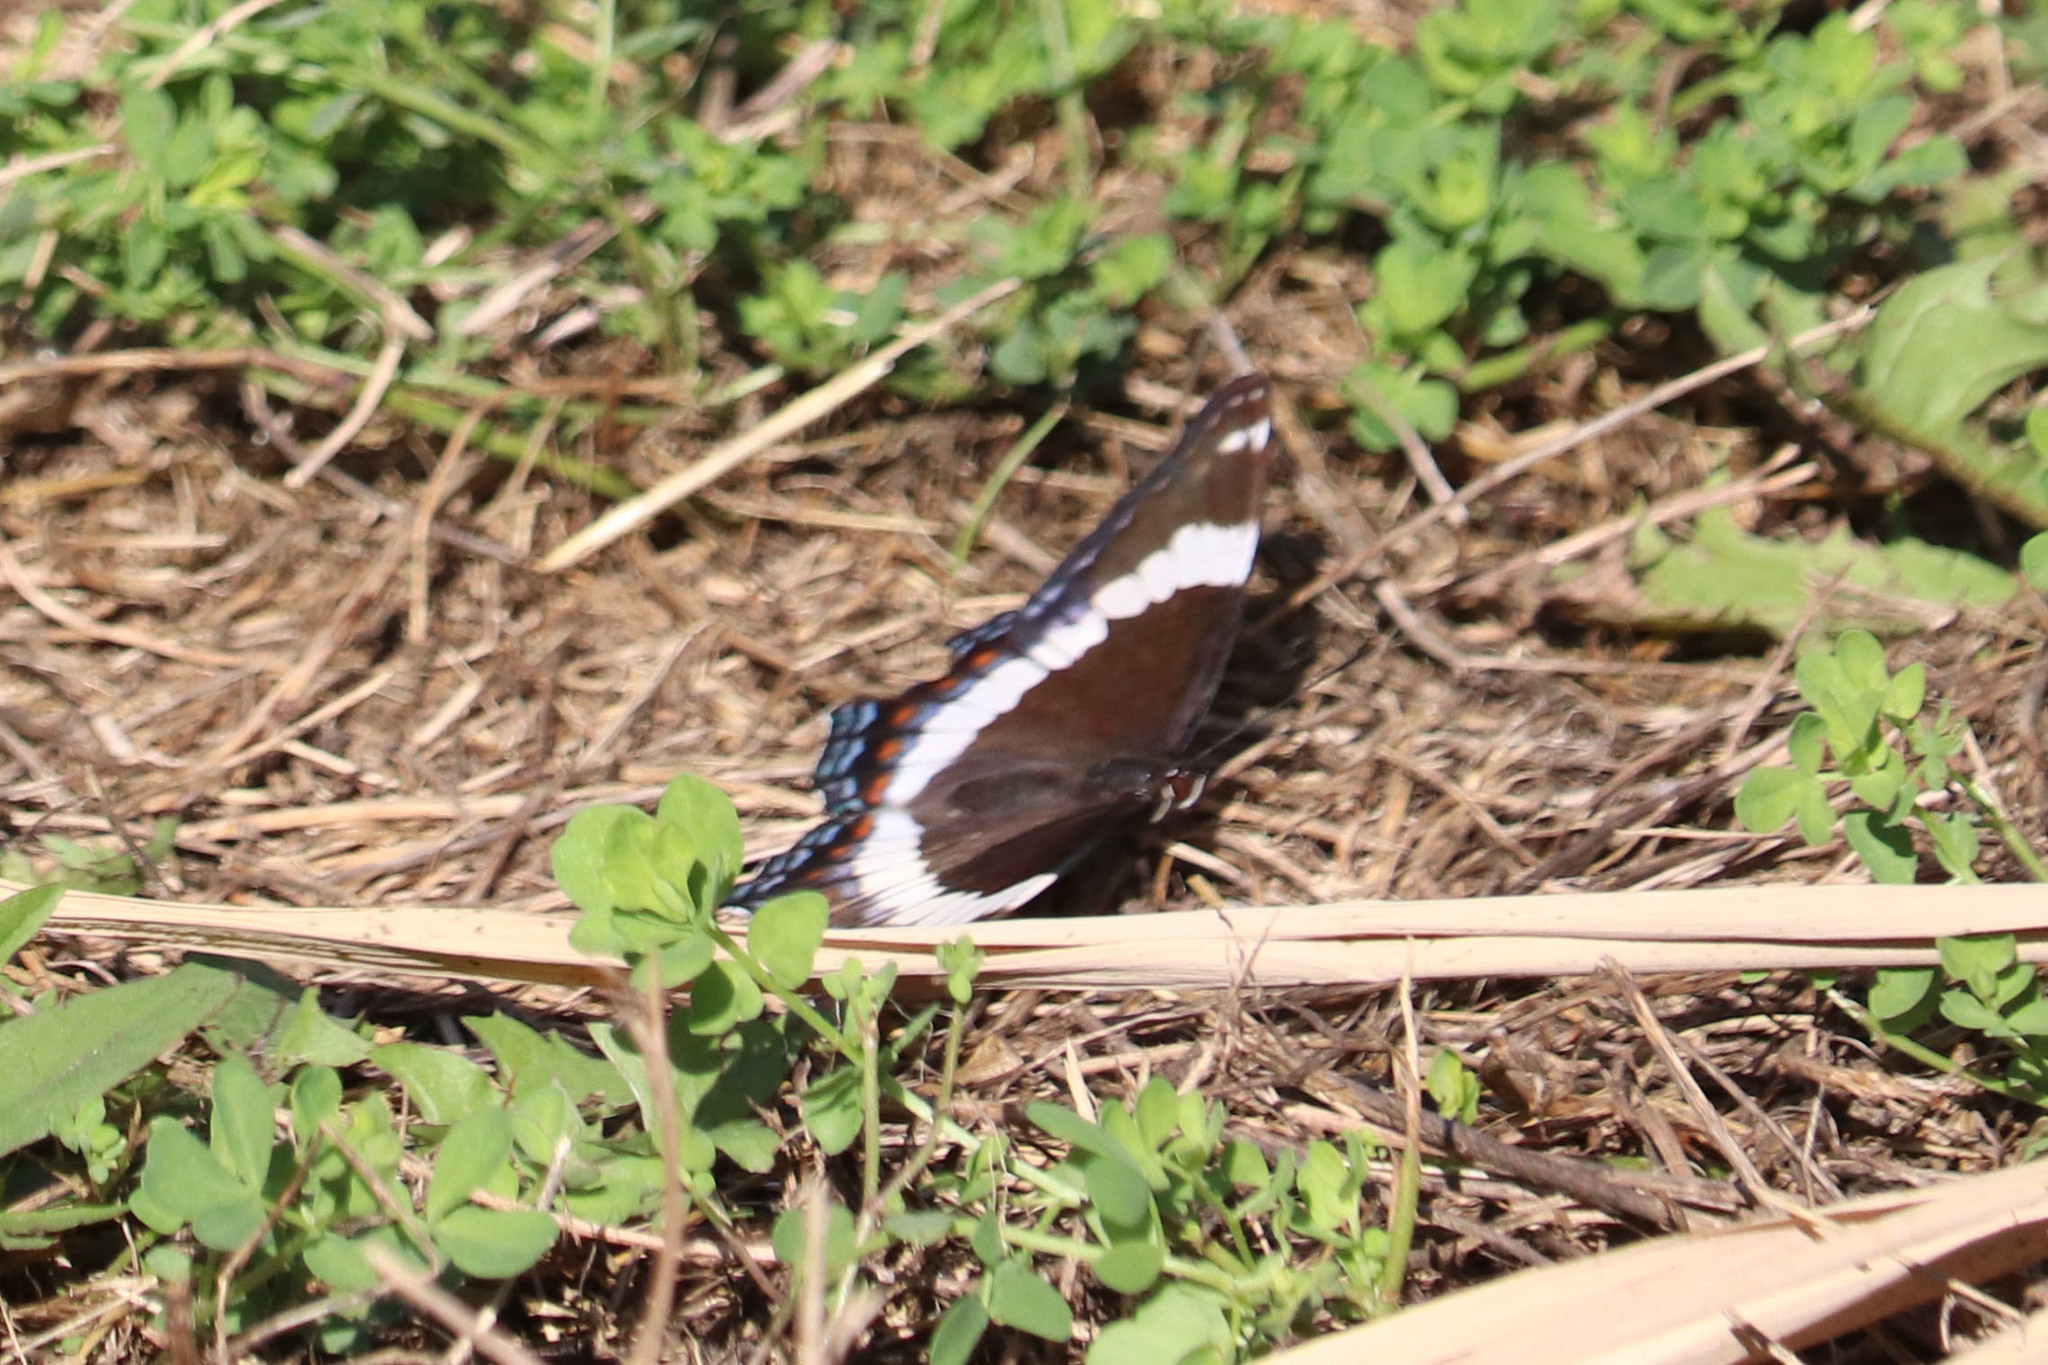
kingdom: Animalia
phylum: Arthropoda
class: Insecta
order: Lepidoptera
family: Nymphalidae
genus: Limenitis
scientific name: Limenitis arthemis
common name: Red-spotted admiral
